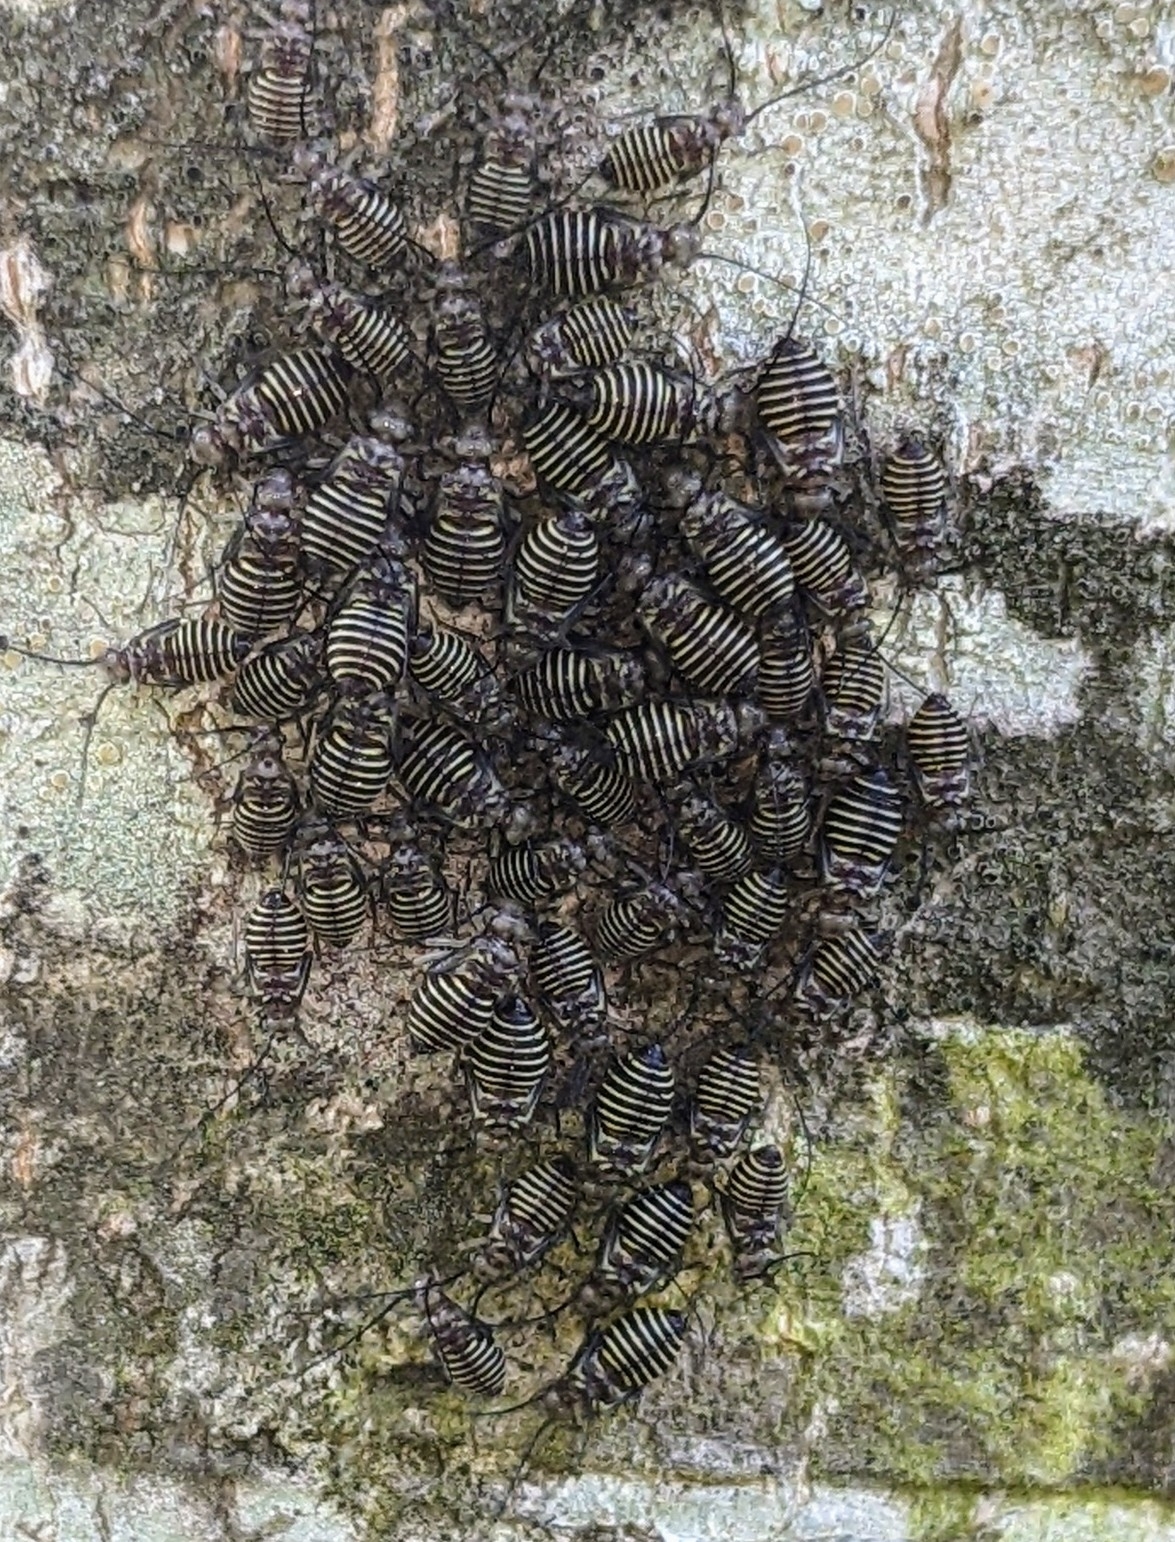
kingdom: Animalia
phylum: Arthropoda
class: Insecta
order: Psocodea
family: Psocidae
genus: Cerastipsocus
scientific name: Cerastipsocus venosus
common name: Tree cattle
